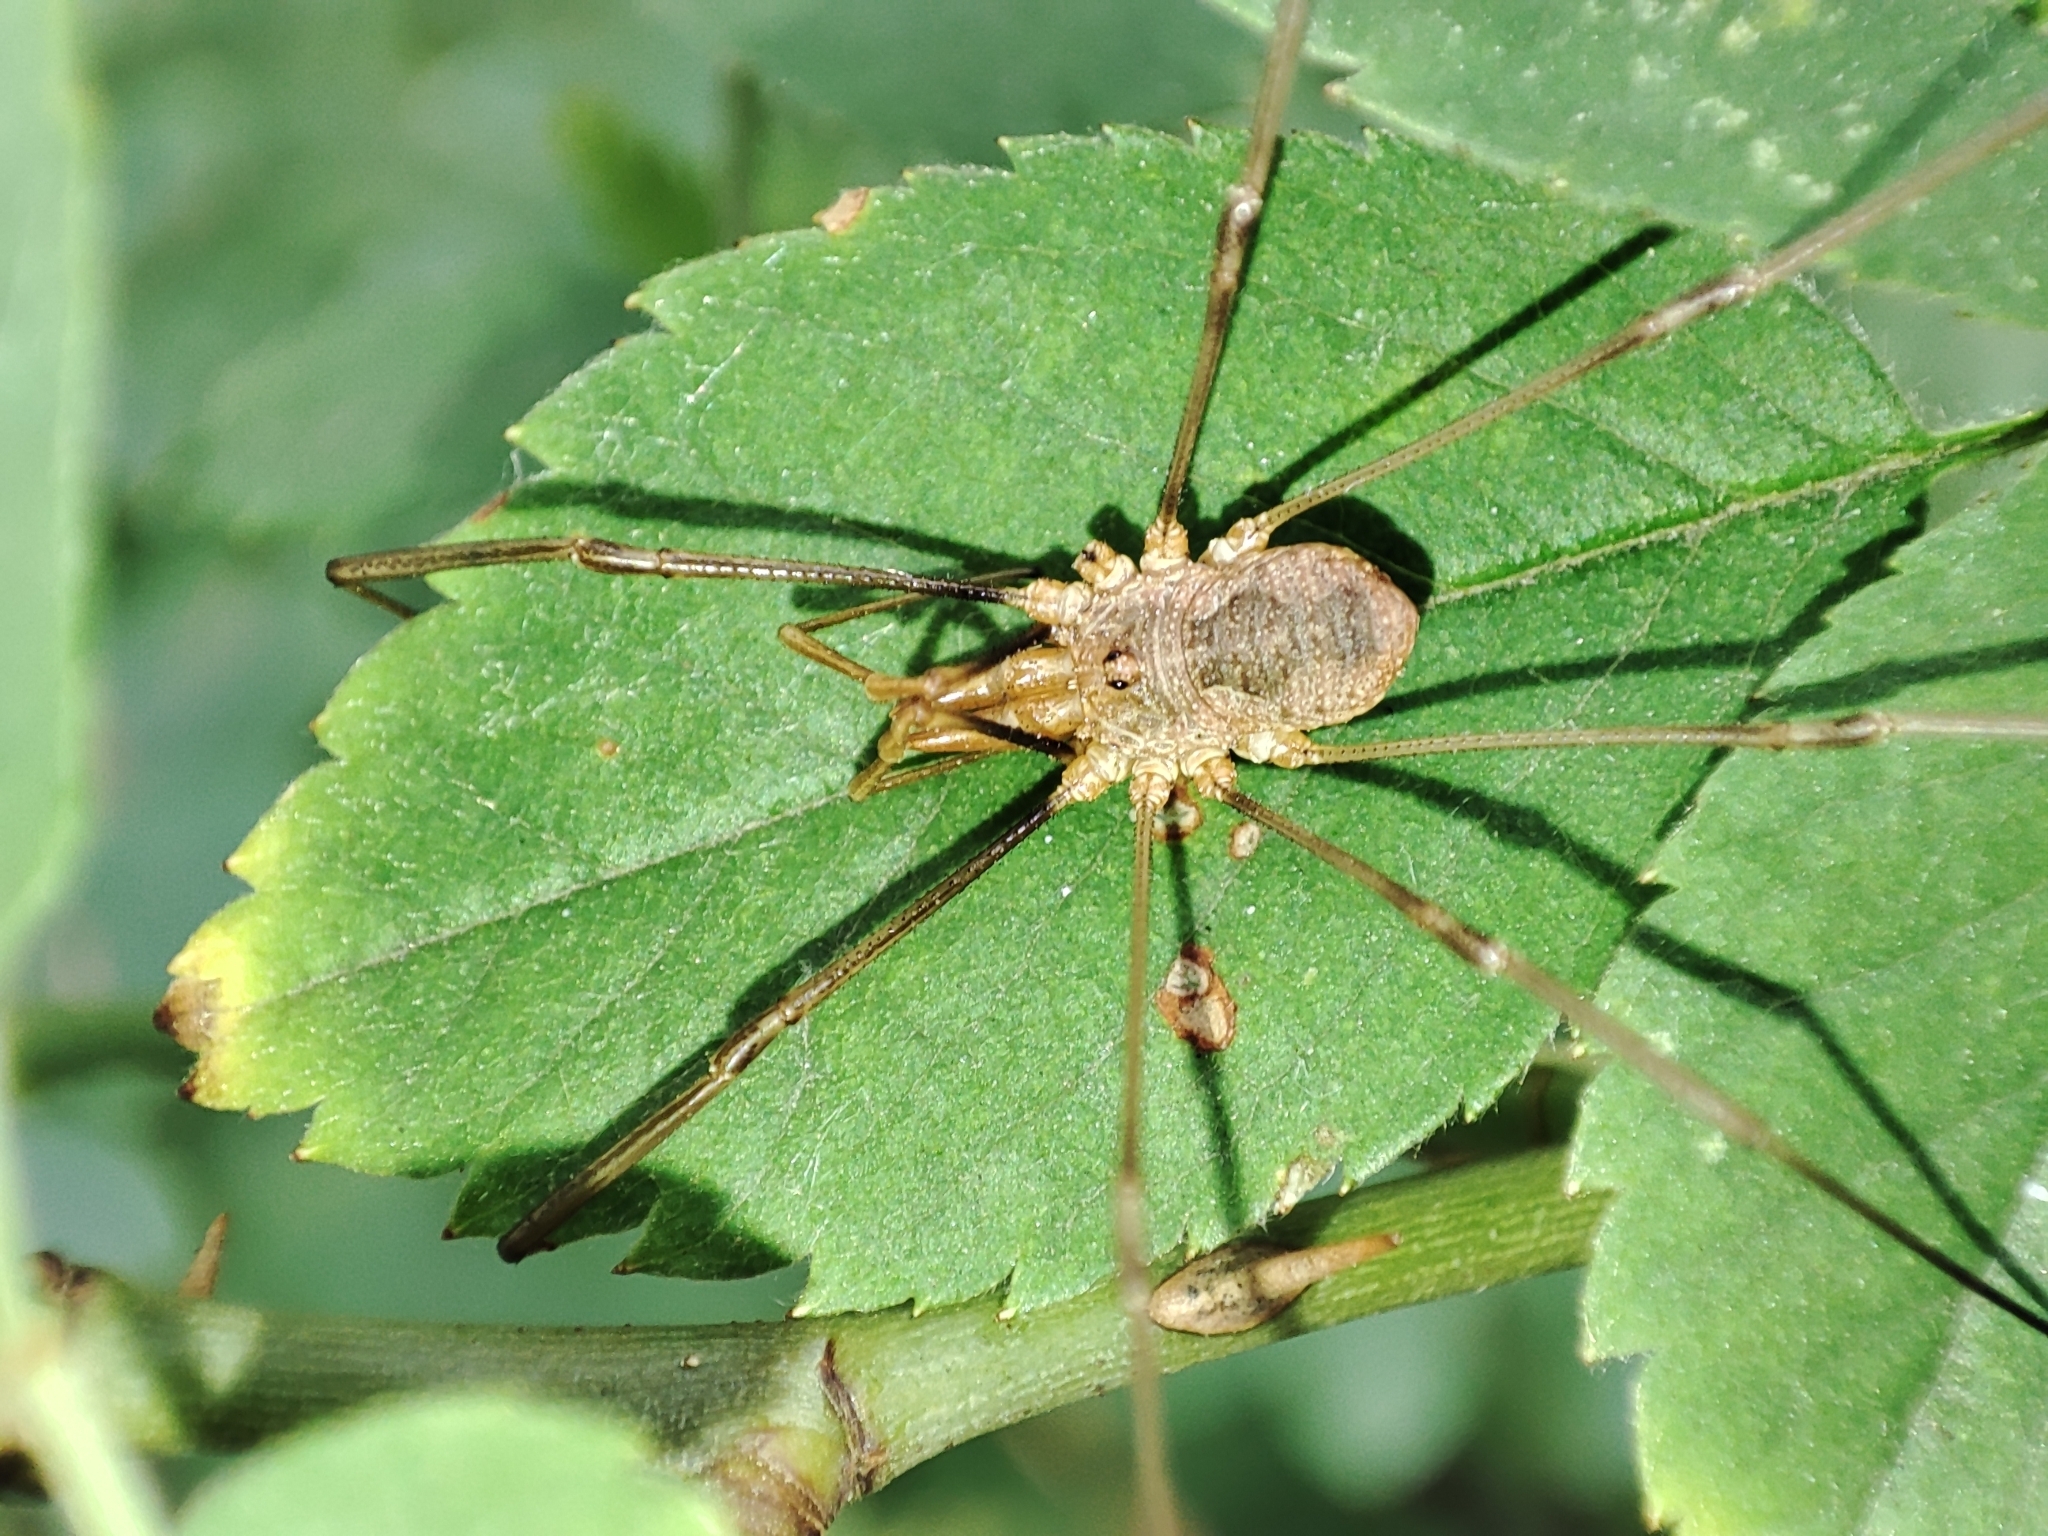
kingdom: Animalia
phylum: Arthropoda
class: Arachnida
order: Opiliones
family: Phalangiidae
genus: Phalangium
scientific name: Phalangium opilio
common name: Daddy longleg
